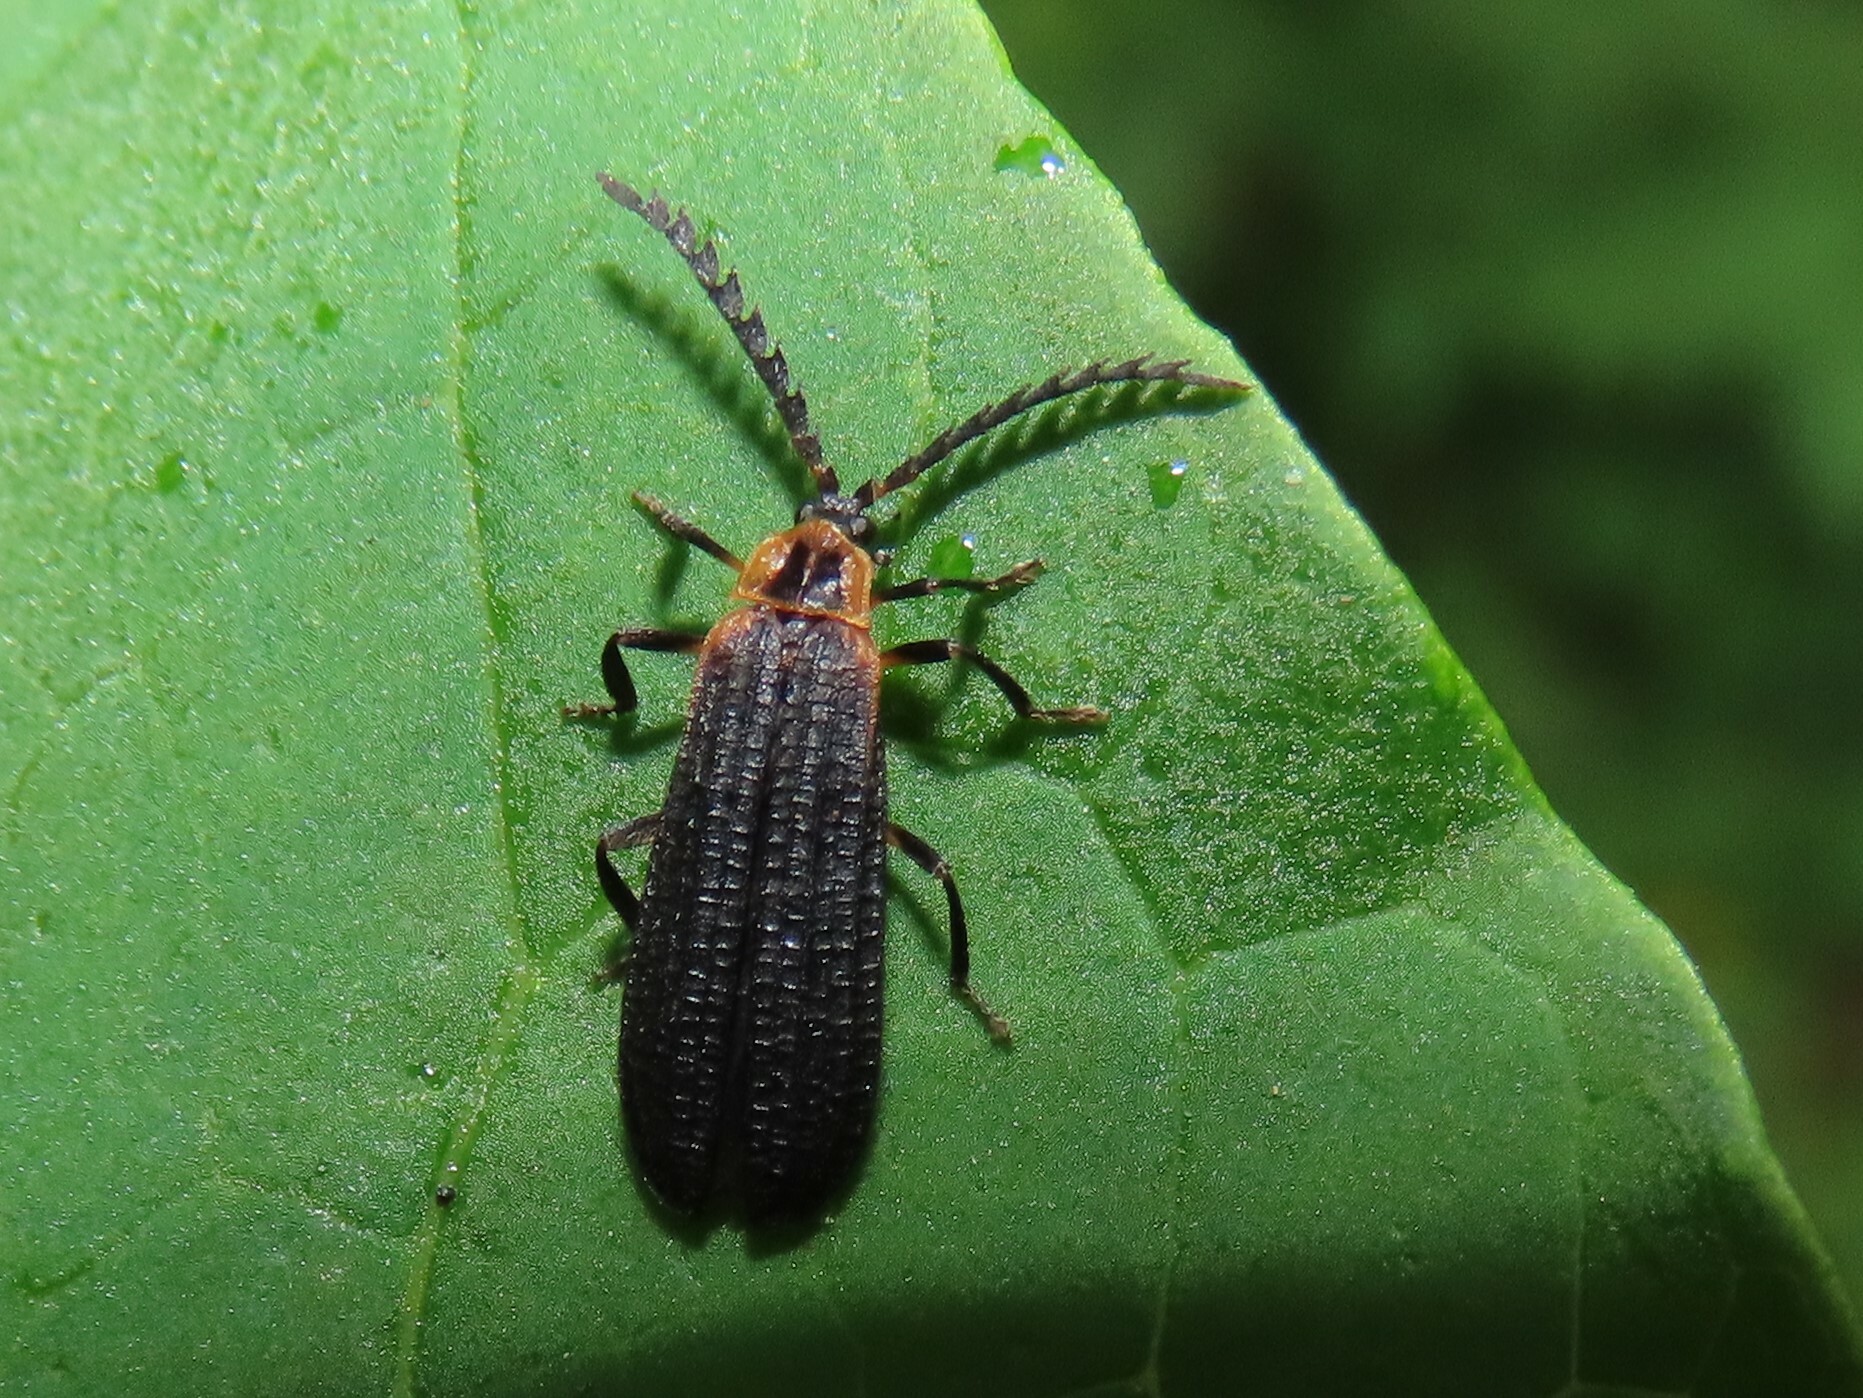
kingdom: Animalia
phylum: Arthropoda
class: Insecta
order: Coleoptera
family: Lycidae
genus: Leptoceletes
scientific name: Leptoceletes basalis
